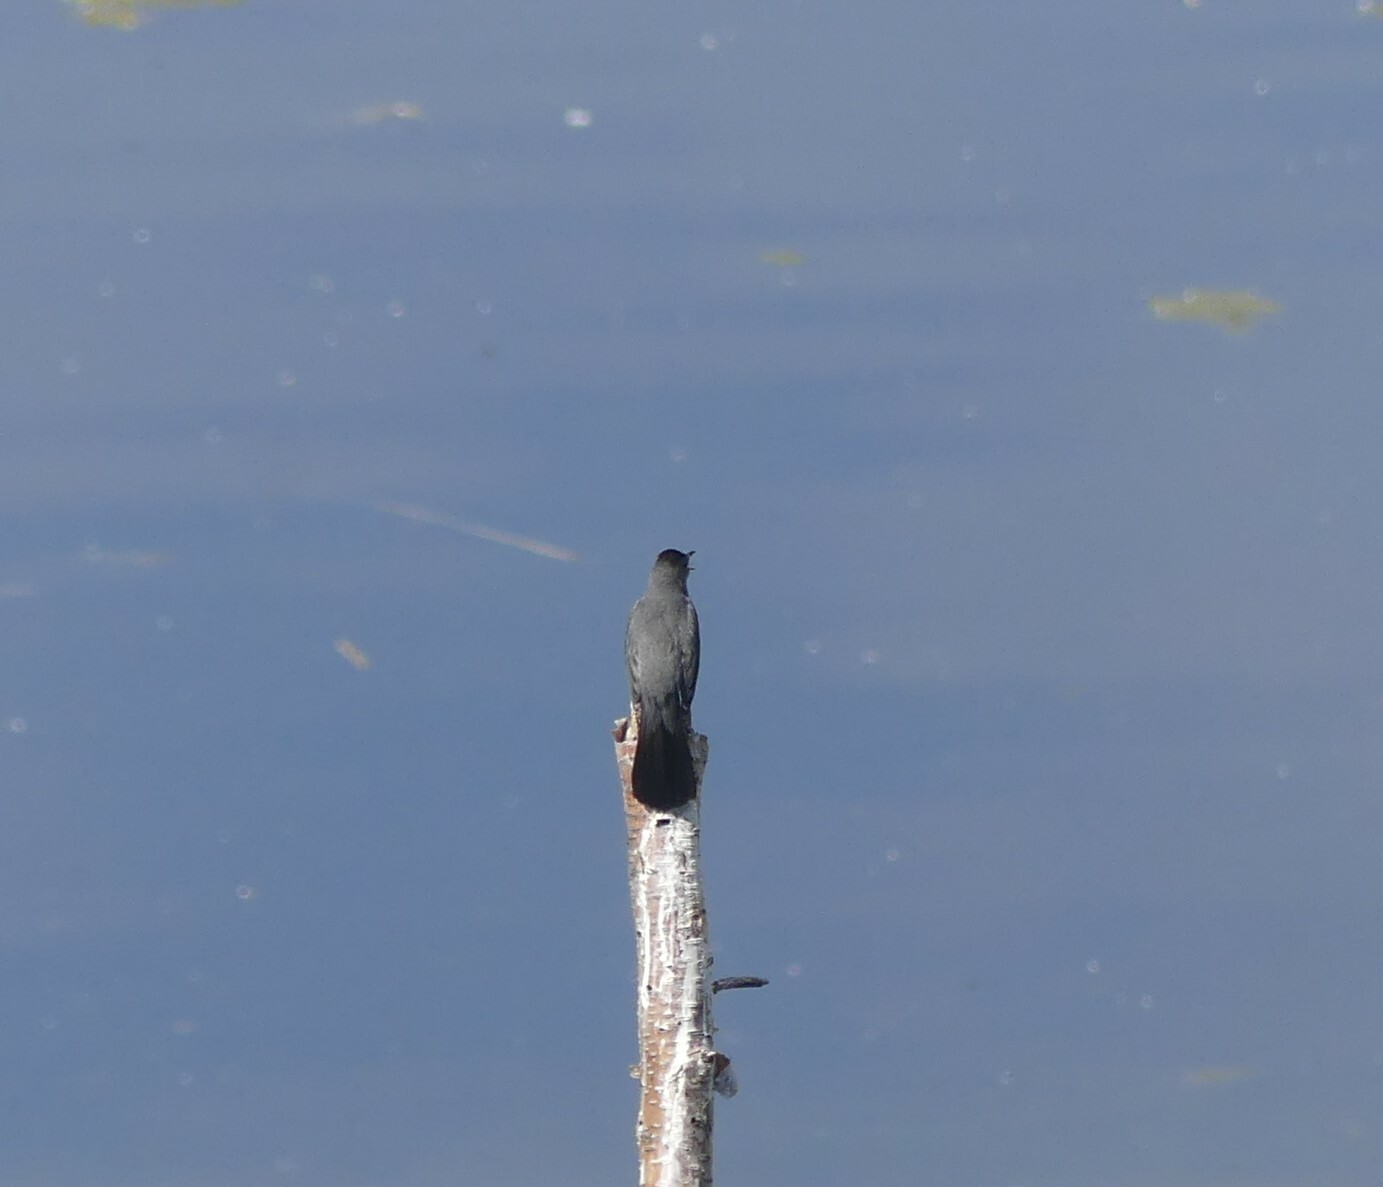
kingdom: Animalia
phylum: Chordata
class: Aves
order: Passeriformes
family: Mimidae
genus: Dumetella
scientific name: Dumetella carolinensis
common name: Gray catbird
